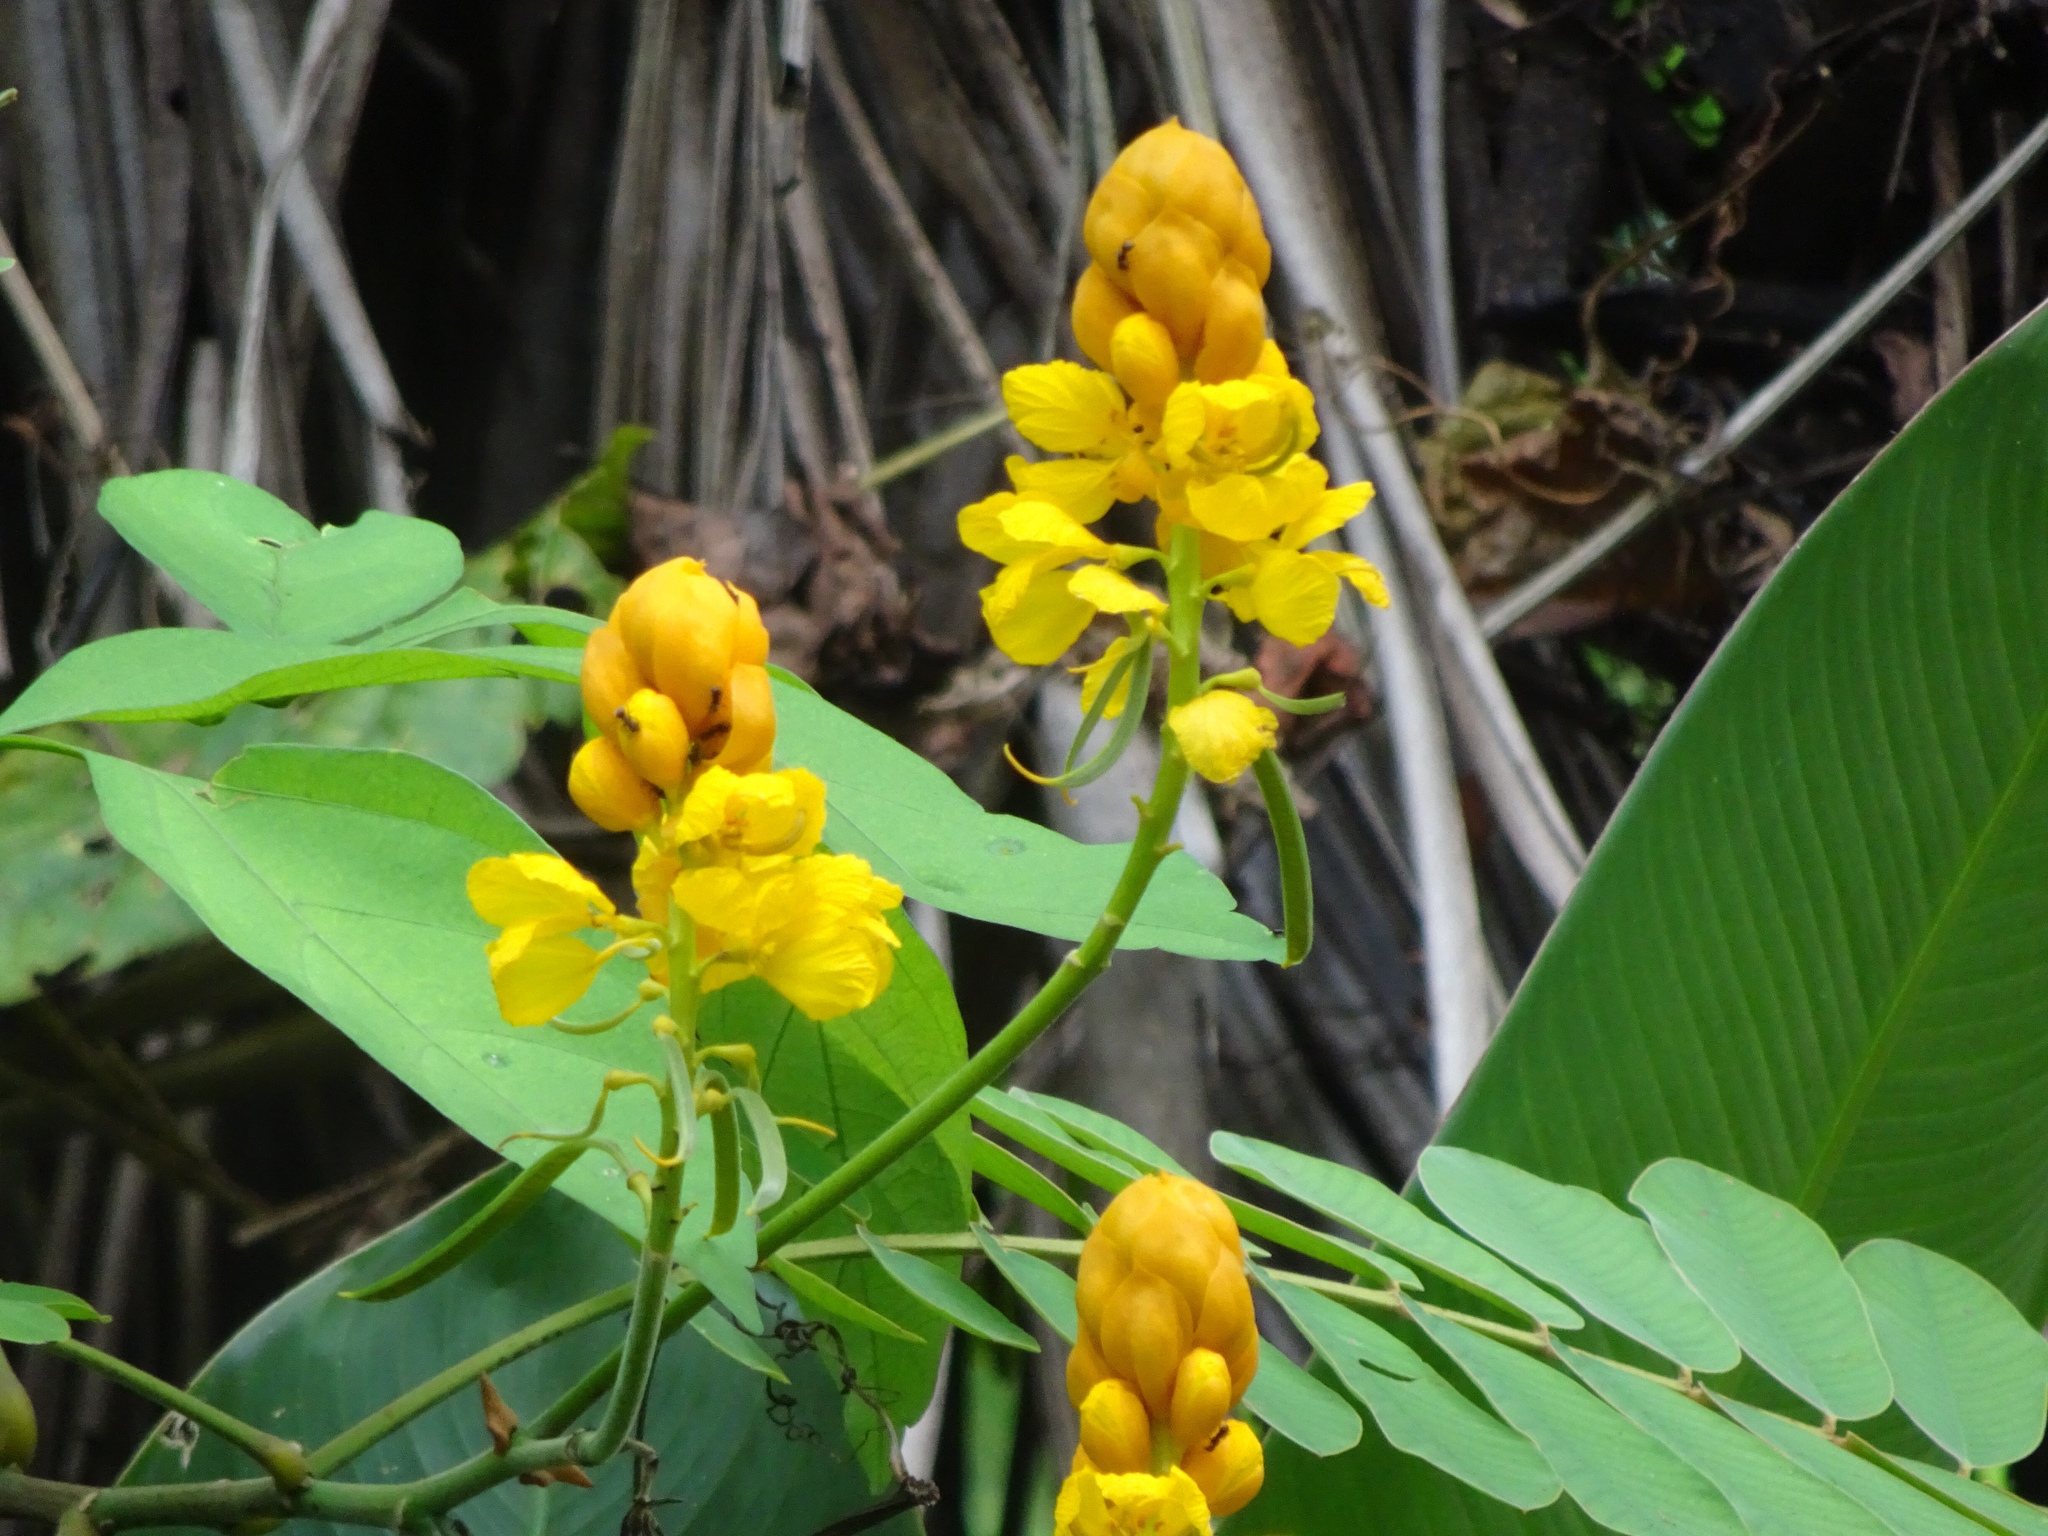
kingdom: Plantae
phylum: Tracheophyta
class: Magnoliopsida
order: Fabales
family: Fabaceae
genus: Senna
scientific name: Senna alata
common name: Emperor's candlesticks
